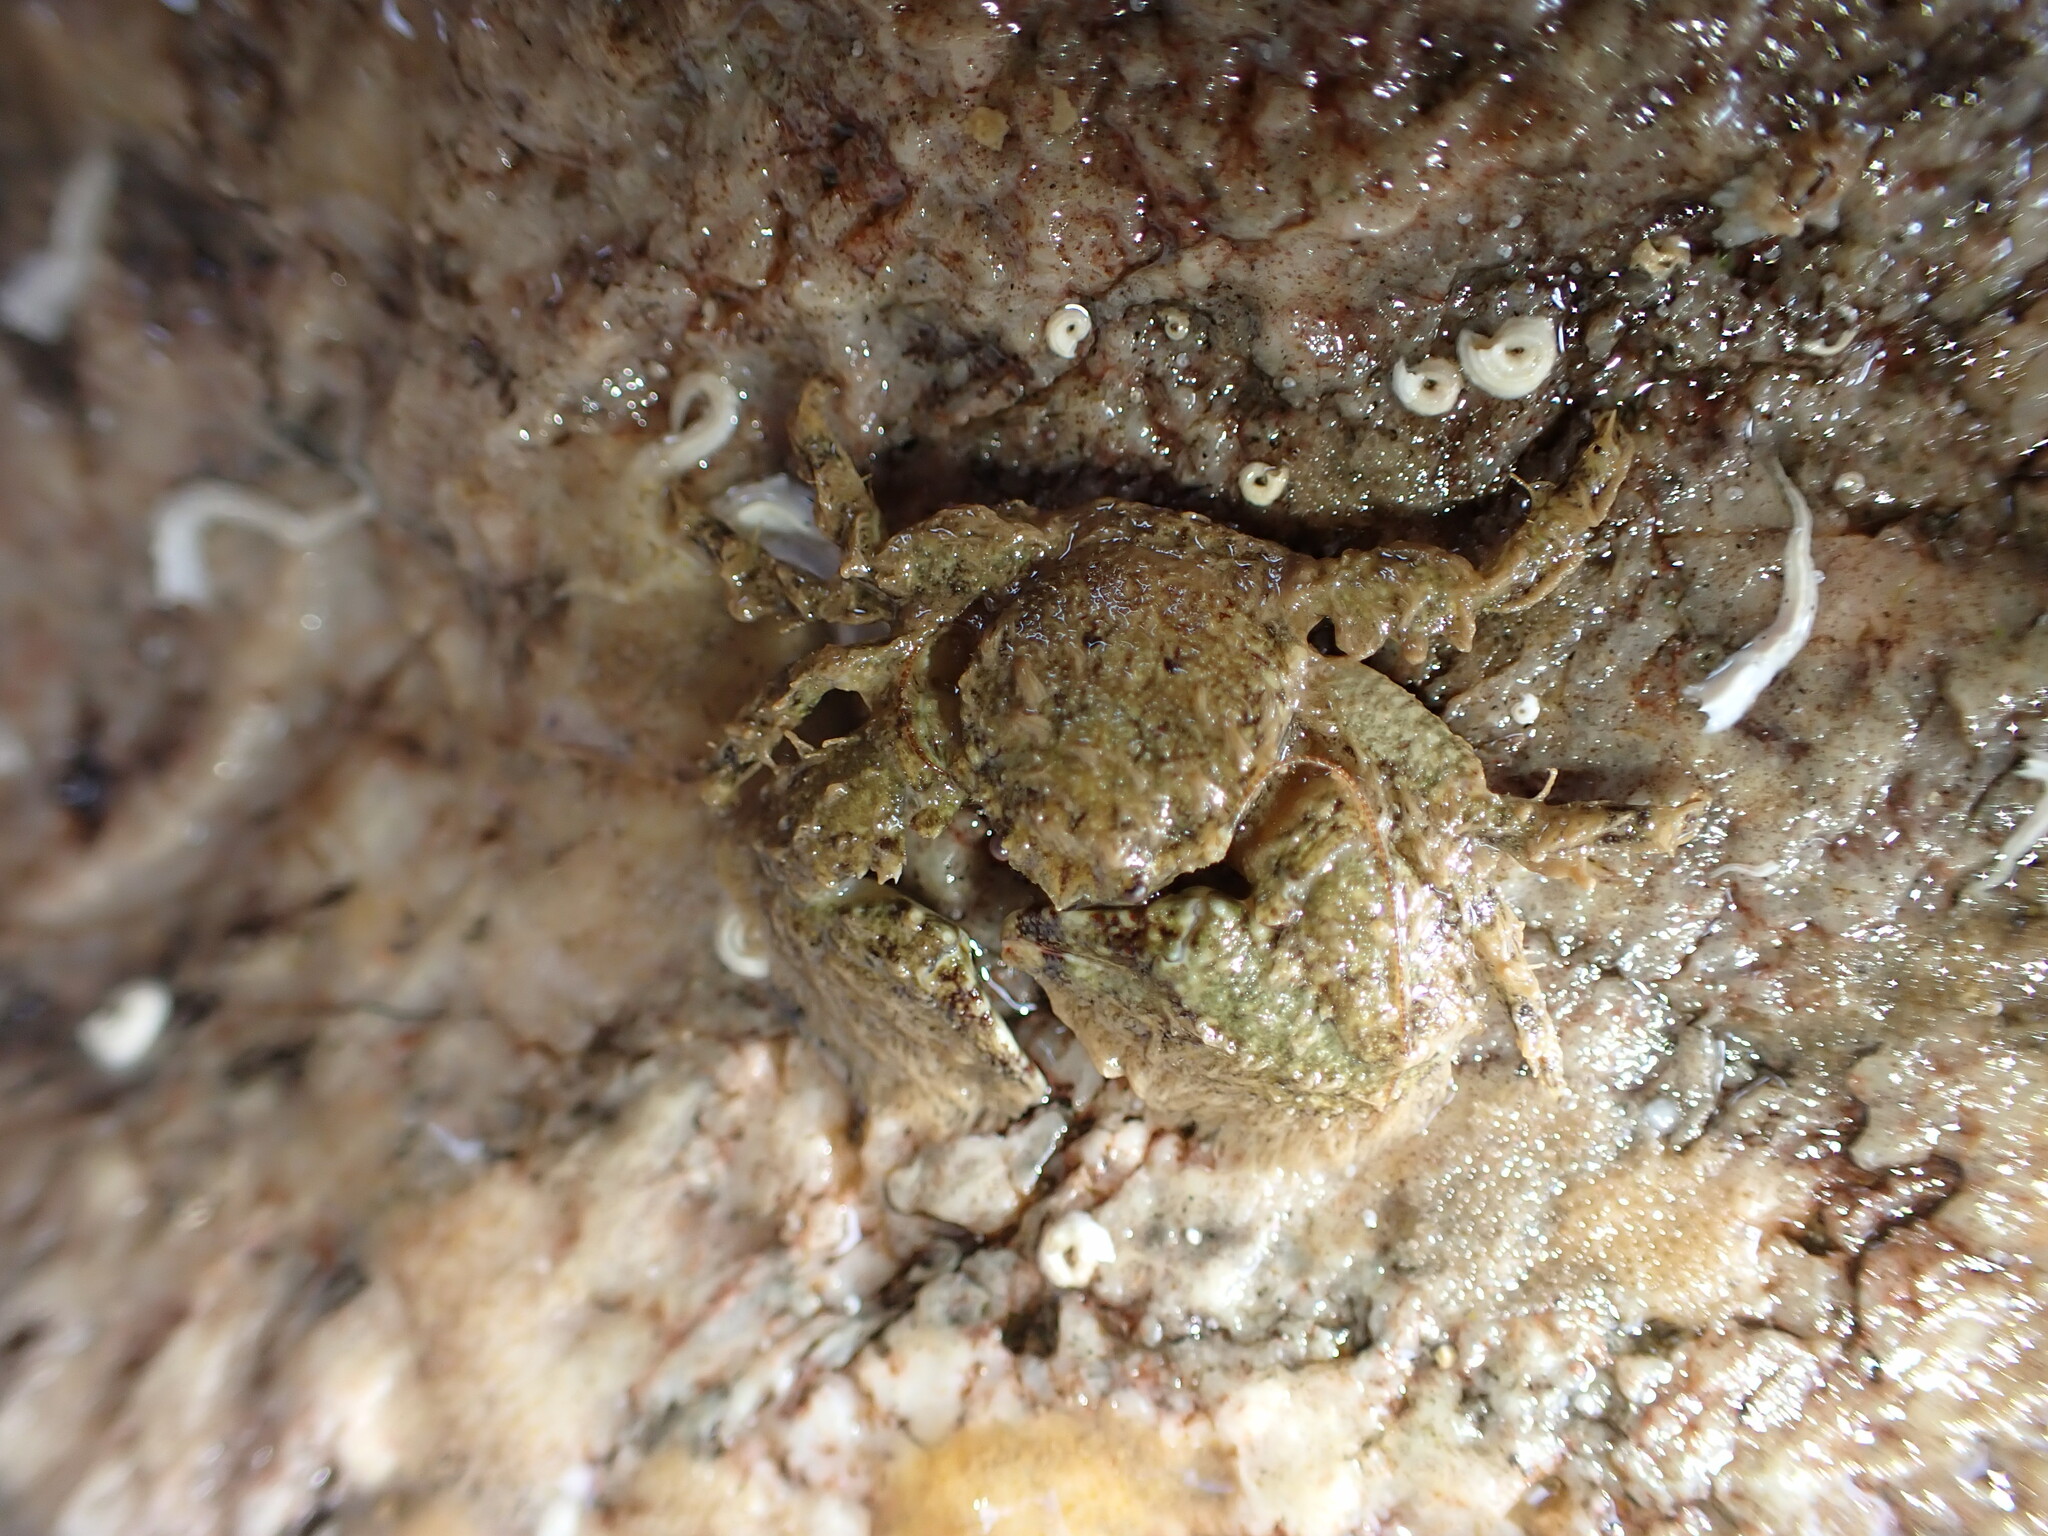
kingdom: Animalia
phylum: Arthropoda
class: Malacostraca
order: Decapoda
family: Porcellanidae
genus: Porcellana
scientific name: Porcellana platycheles
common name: Porcelain crab
